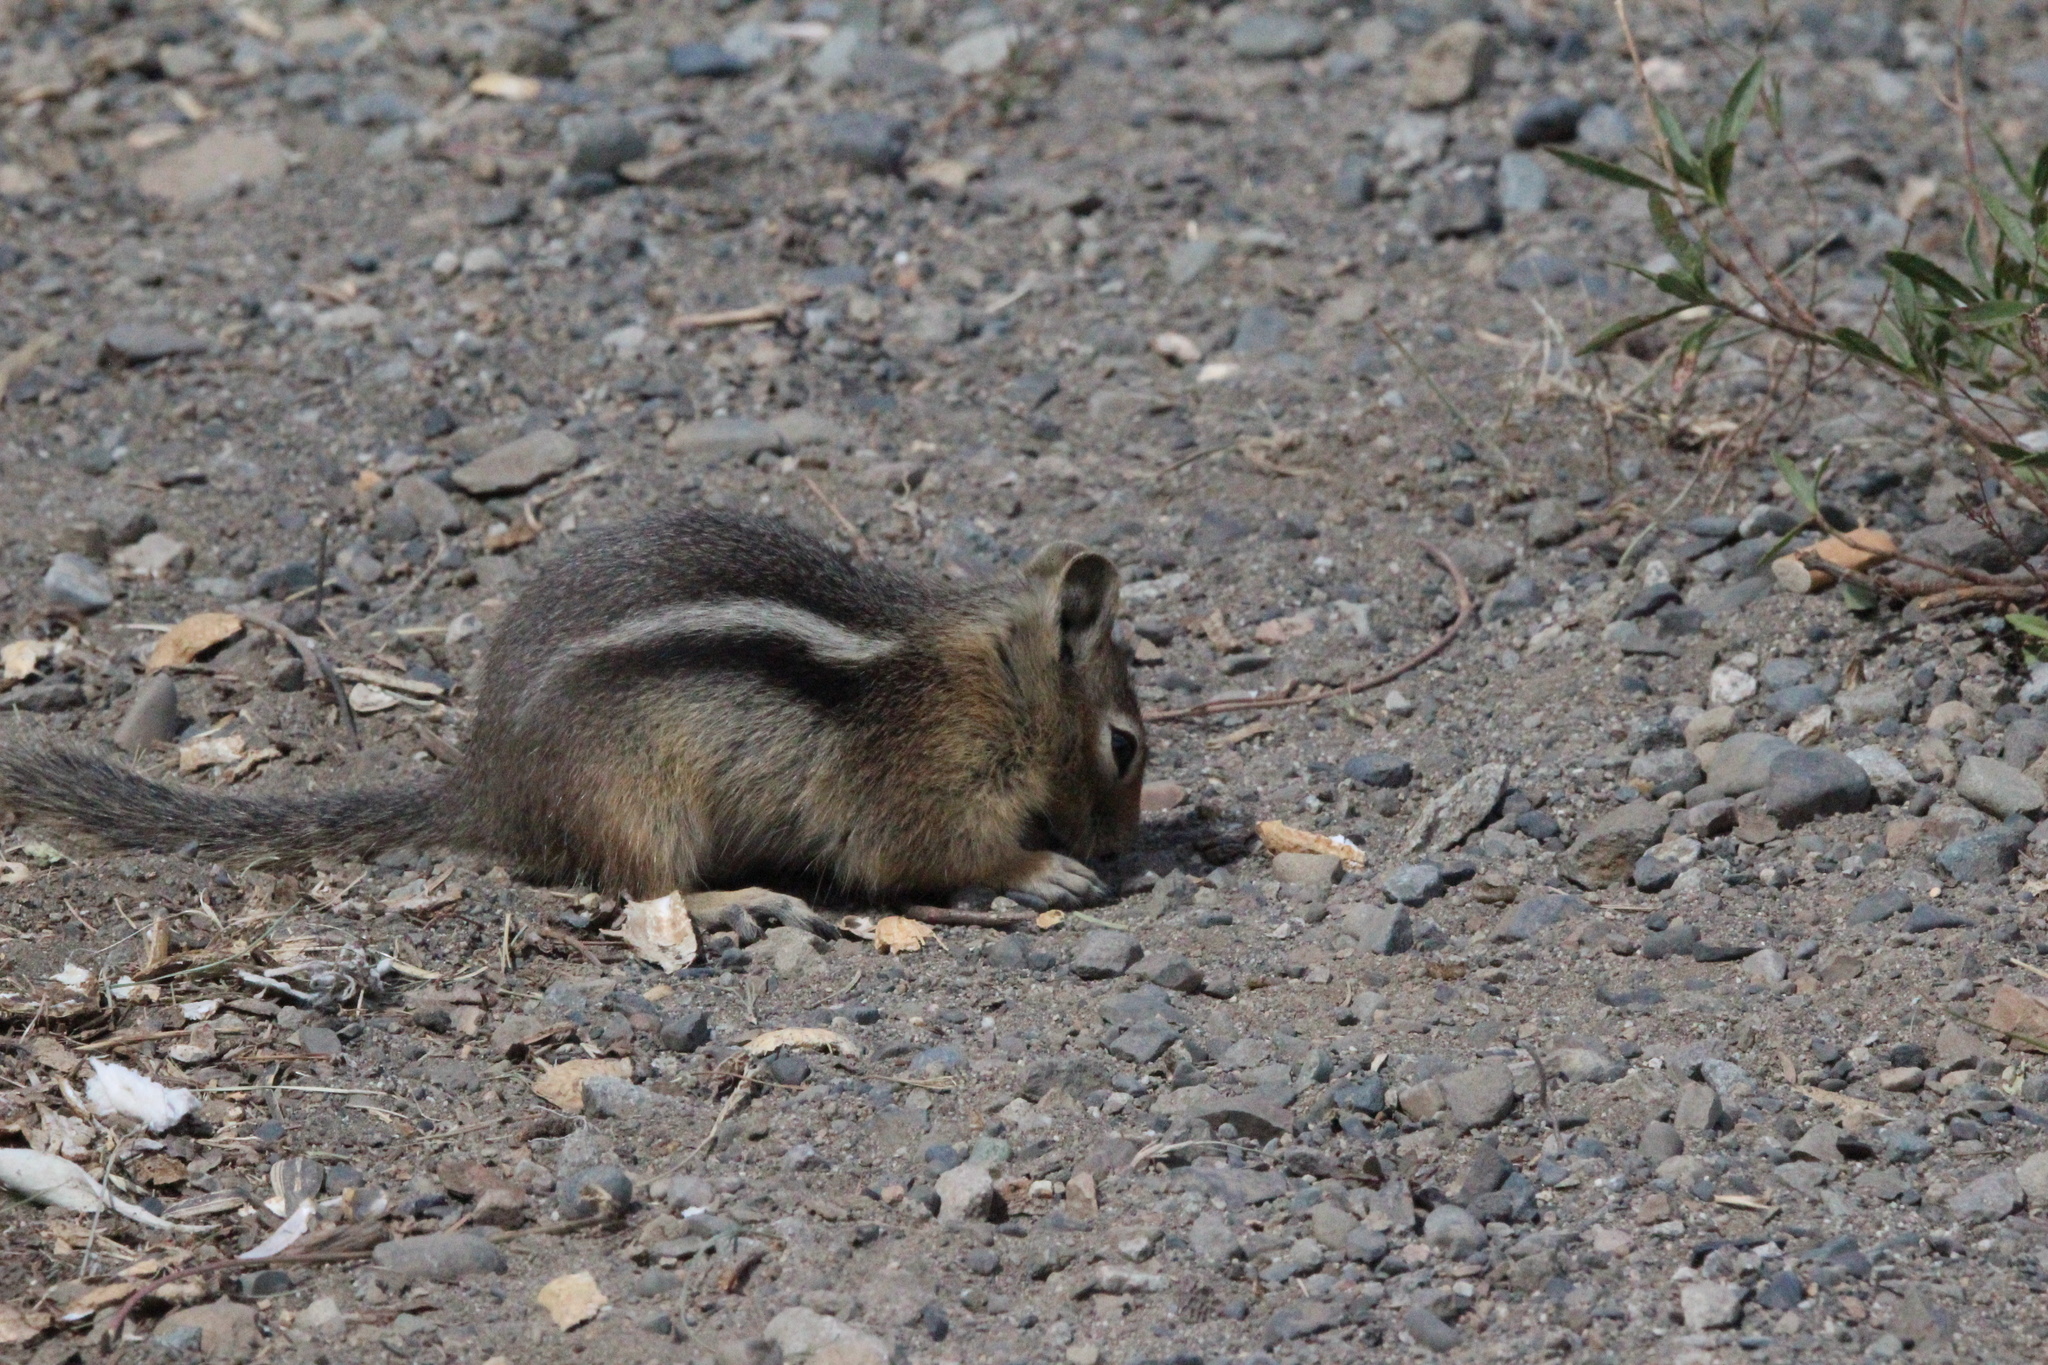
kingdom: Animalia
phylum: Chordata
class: Mammalia
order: Rodentia
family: Sciuridae
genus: Callospermophilus
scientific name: Callospermophilus saturatus
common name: Cascade golden-mantled ground squirrel
